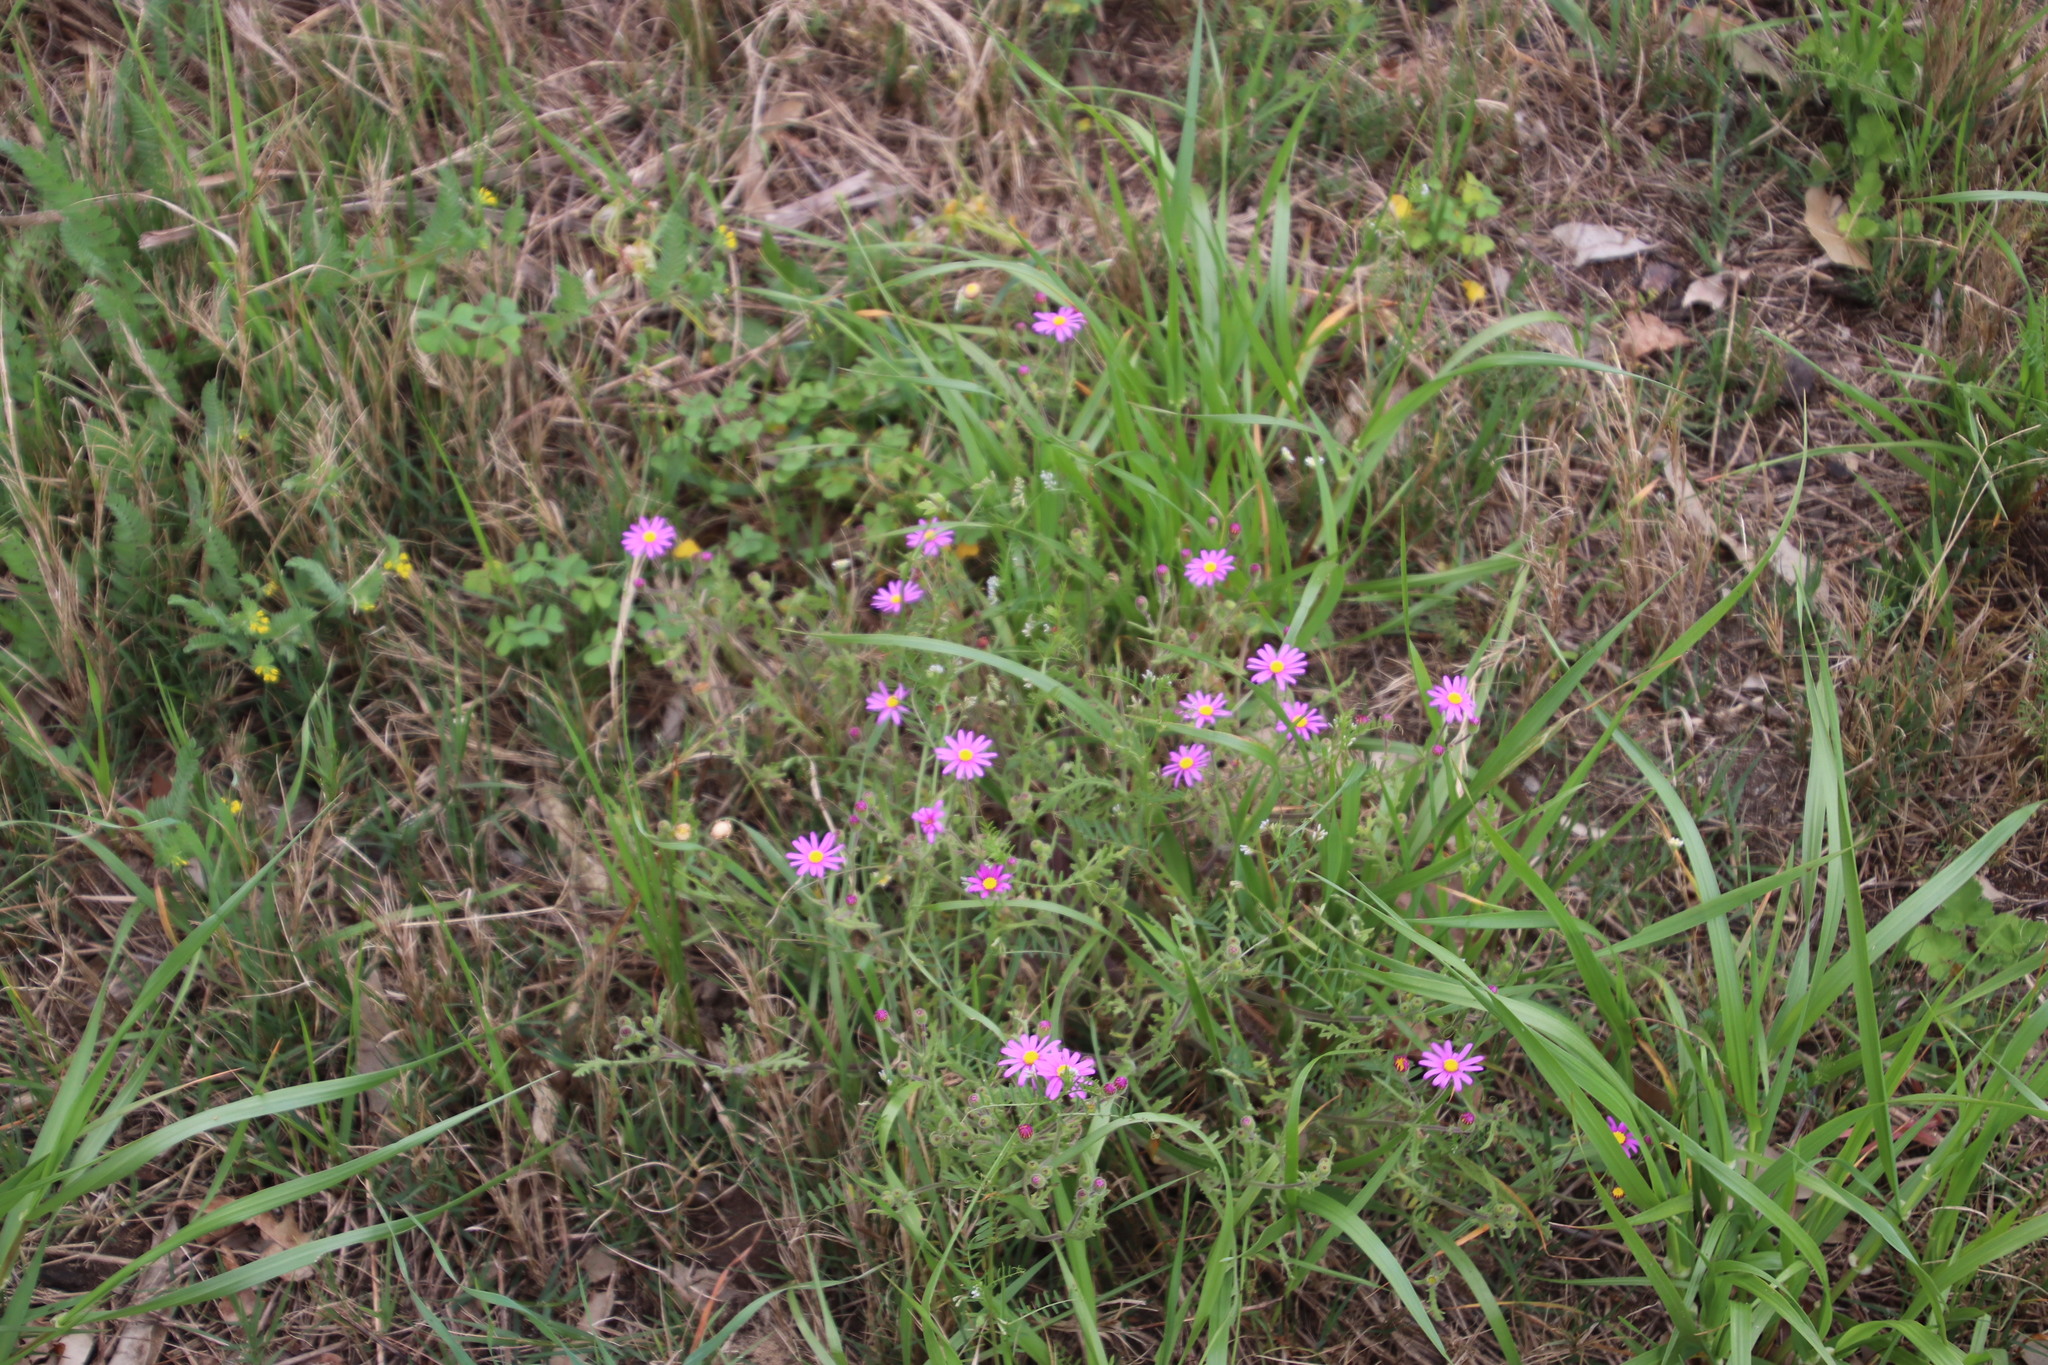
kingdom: Plantae
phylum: Tracheophyta
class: Magnoliopsida
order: Asterales
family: Asteraceae
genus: Senecio
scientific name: Senecio arenarius
